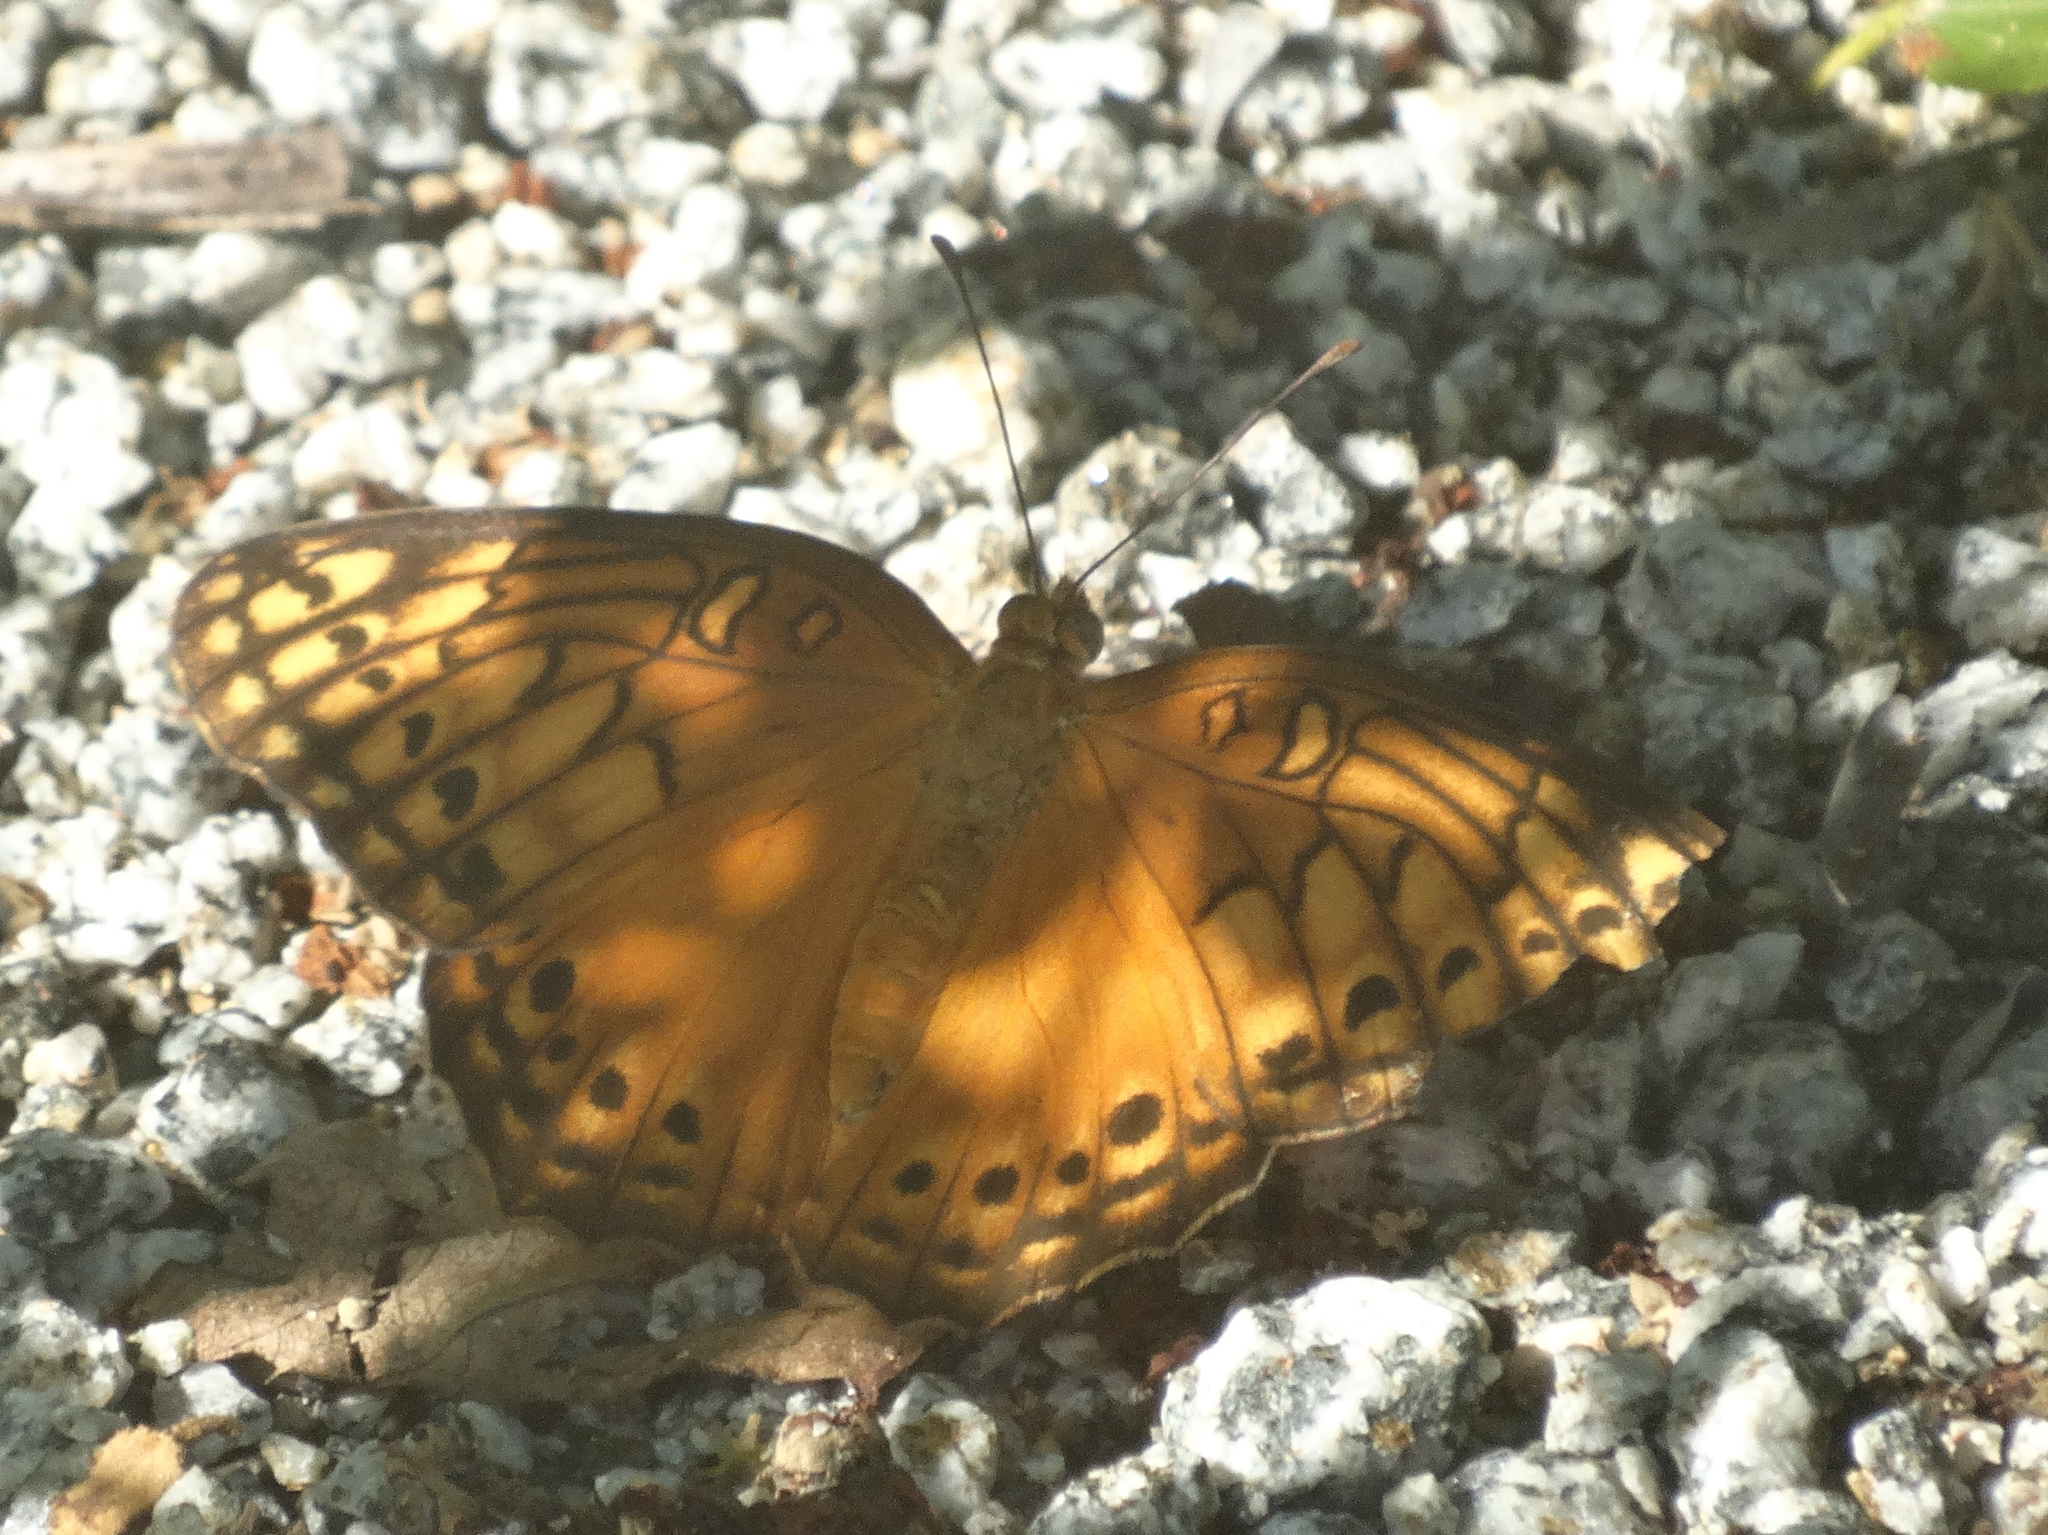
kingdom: Animalia
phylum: Arthropoda
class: Insecta
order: Lepidoptera
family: Nymphalidae
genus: Euptoieta
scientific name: Euptoieta hegesia
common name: Mexican fritillary
